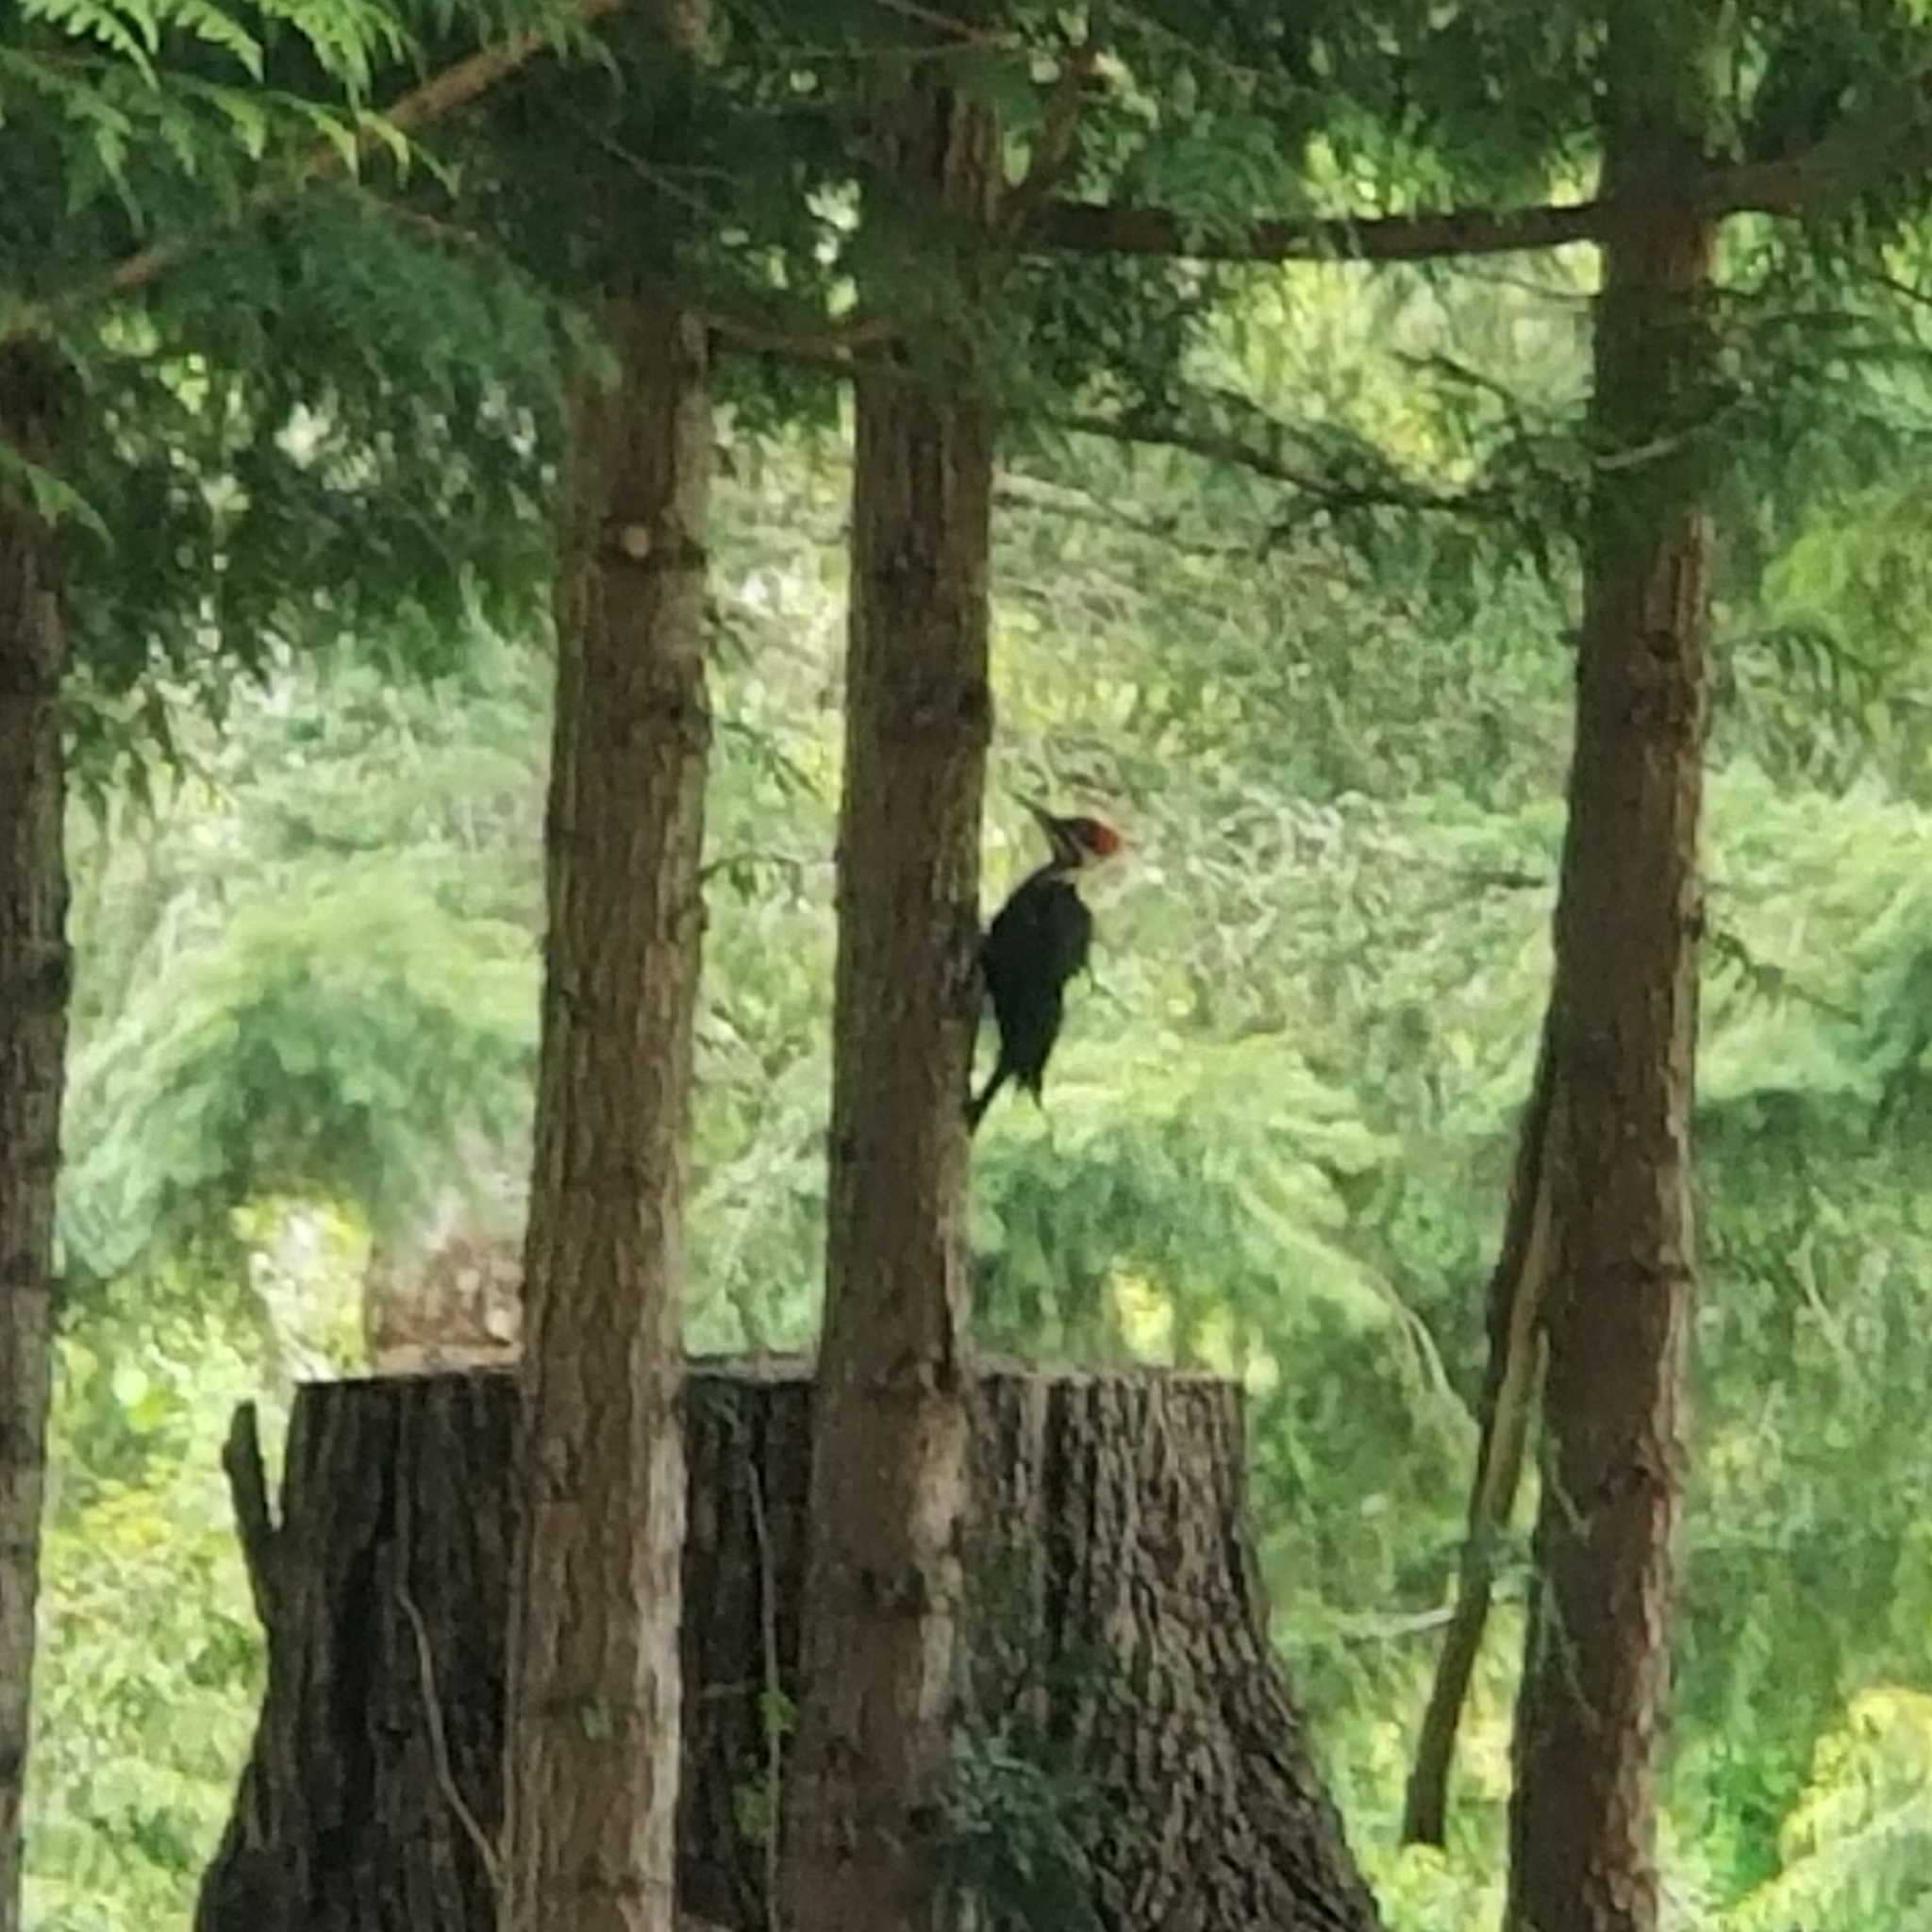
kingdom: Animalia
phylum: Chordata
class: Aves
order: Piciformes
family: Picidae
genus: Dryocopus
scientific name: Dryocopus pileatus
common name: Pileated woodpecker
